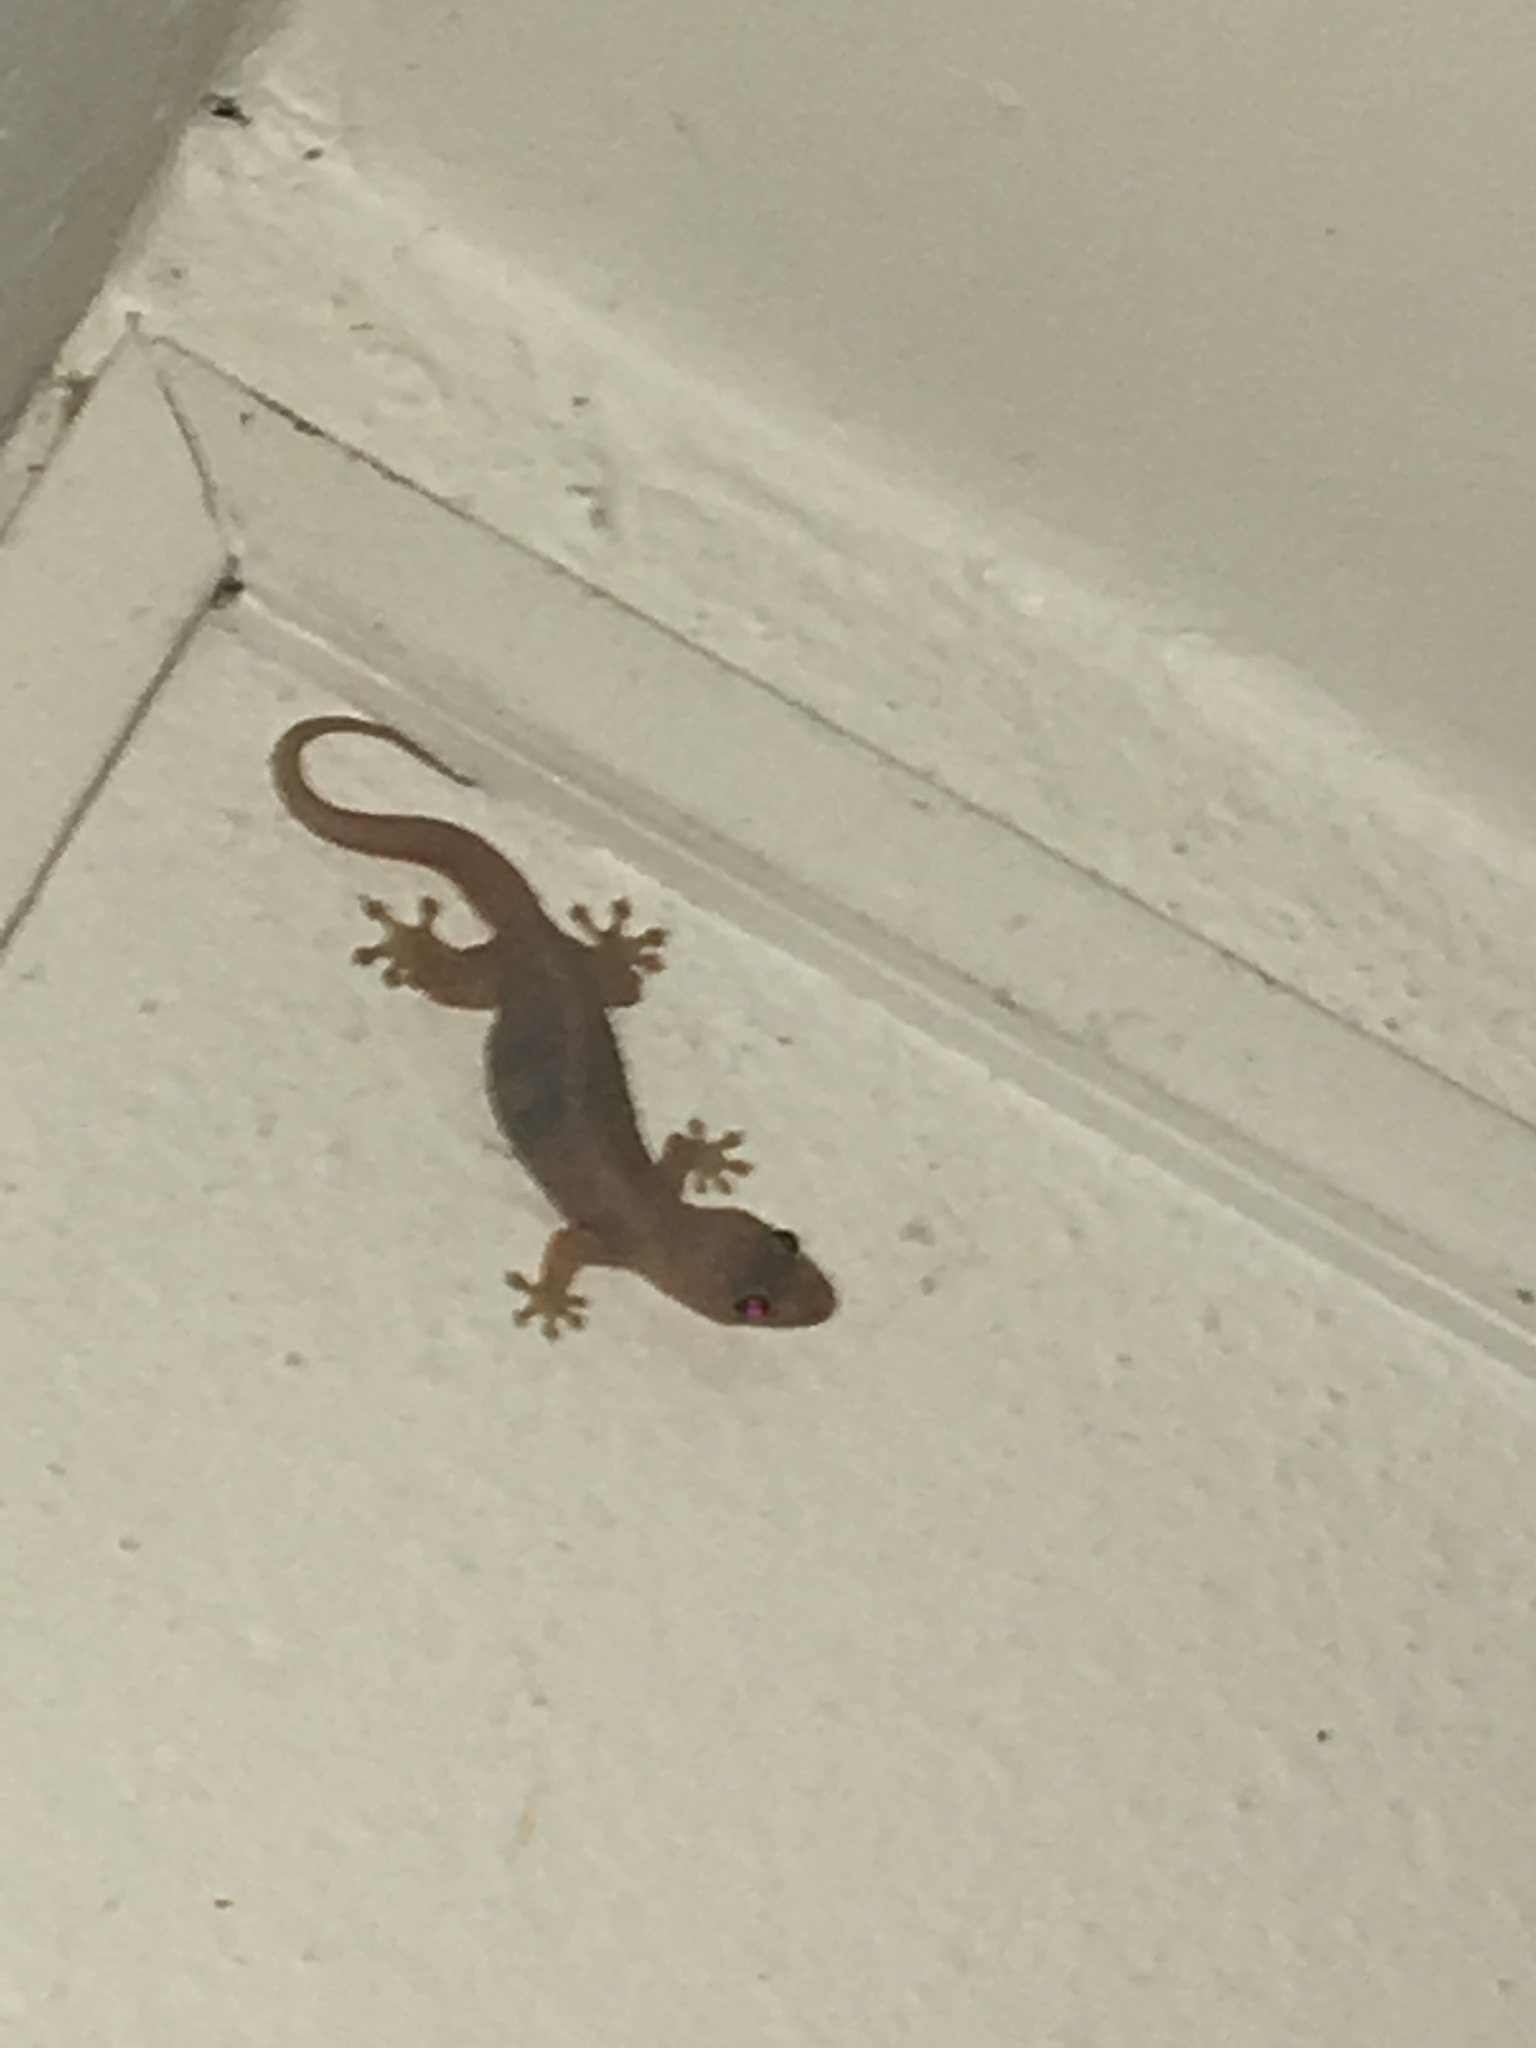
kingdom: Animalia
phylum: Chordata
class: Squamata
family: Gekkonidae
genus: Gehyra
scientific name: Gehyra mutilata
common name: Stump-toed gecko
